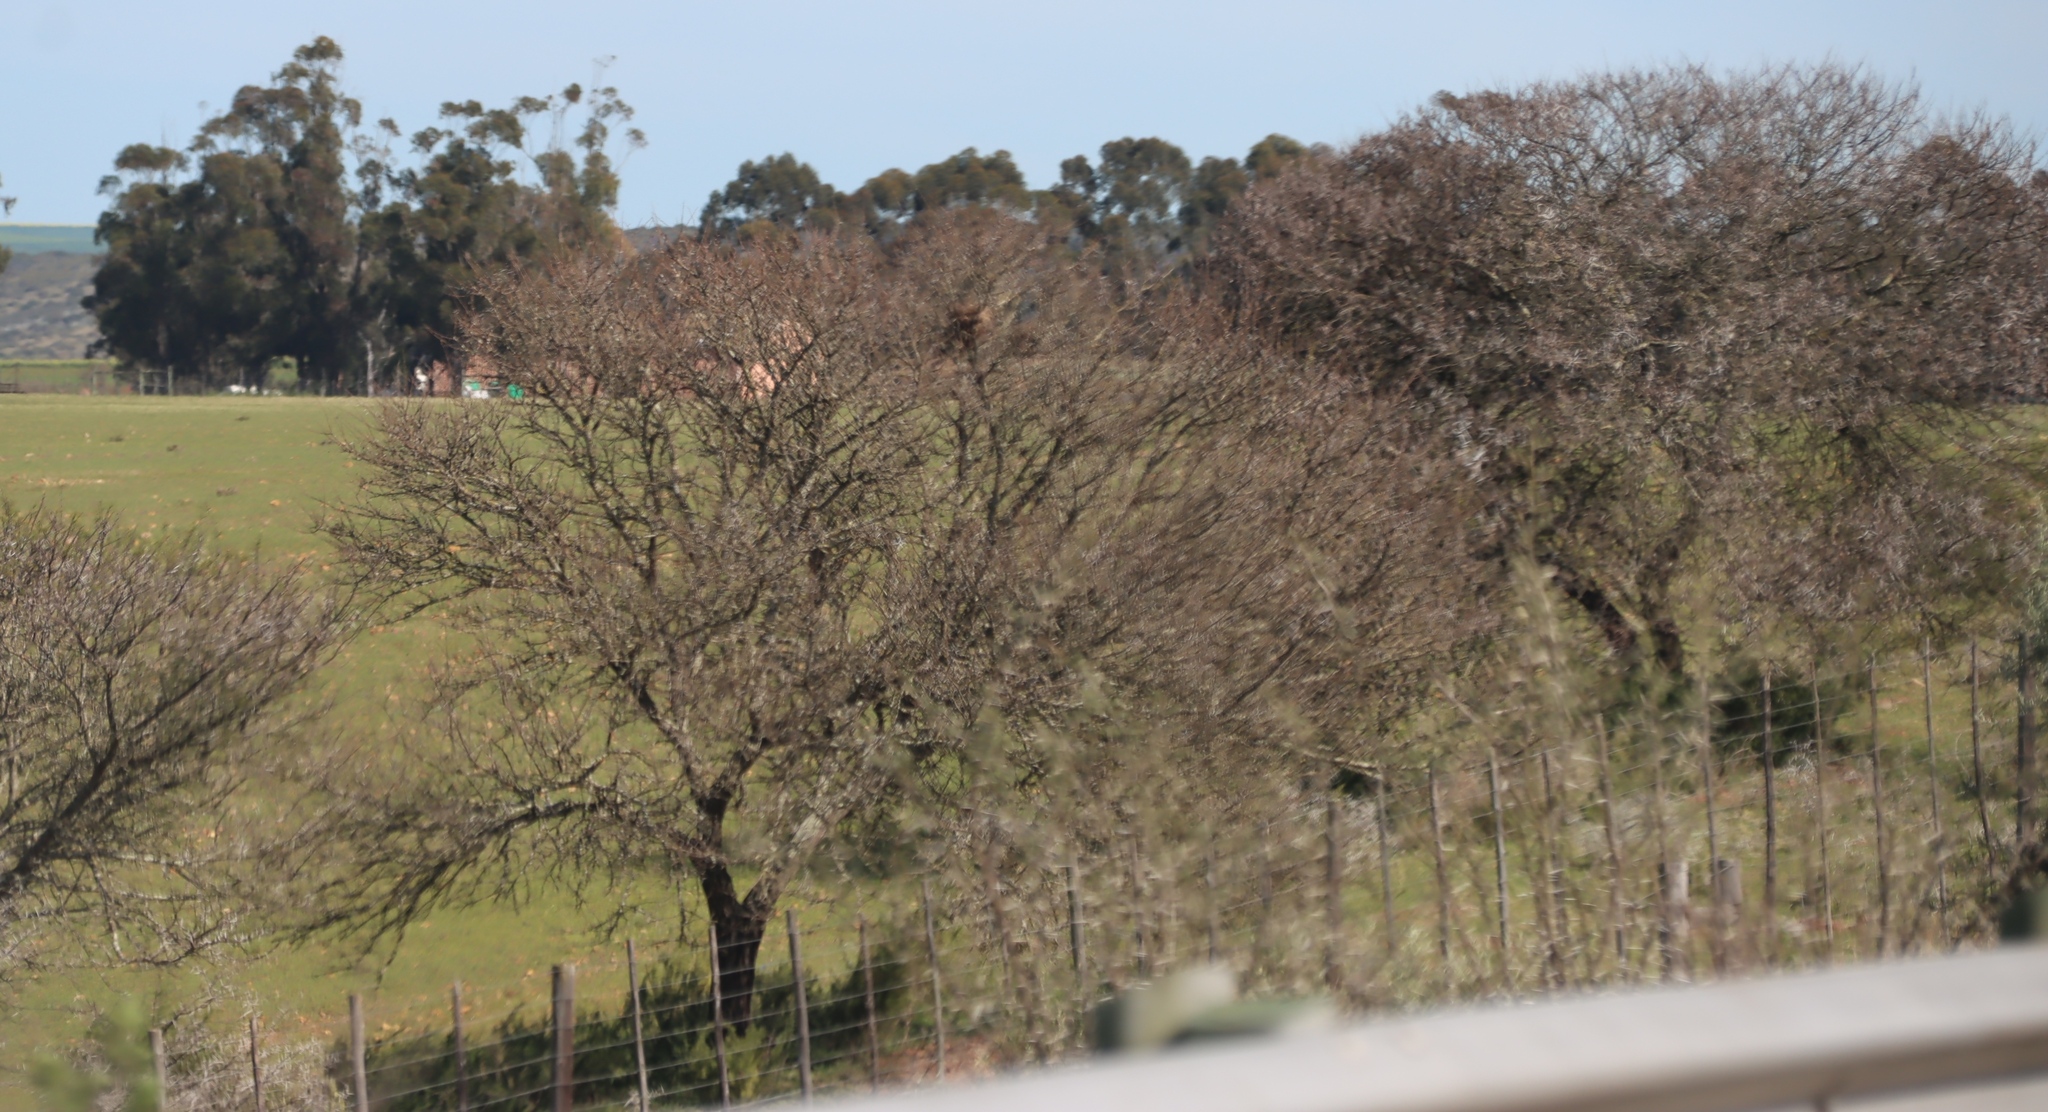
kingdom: Plantae
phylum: Tracheophyta
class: Magnoliopsida
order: Fabales
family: Fabaceae
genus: Vachellia
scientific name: Vachellia karroo
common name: Sweet thorn
